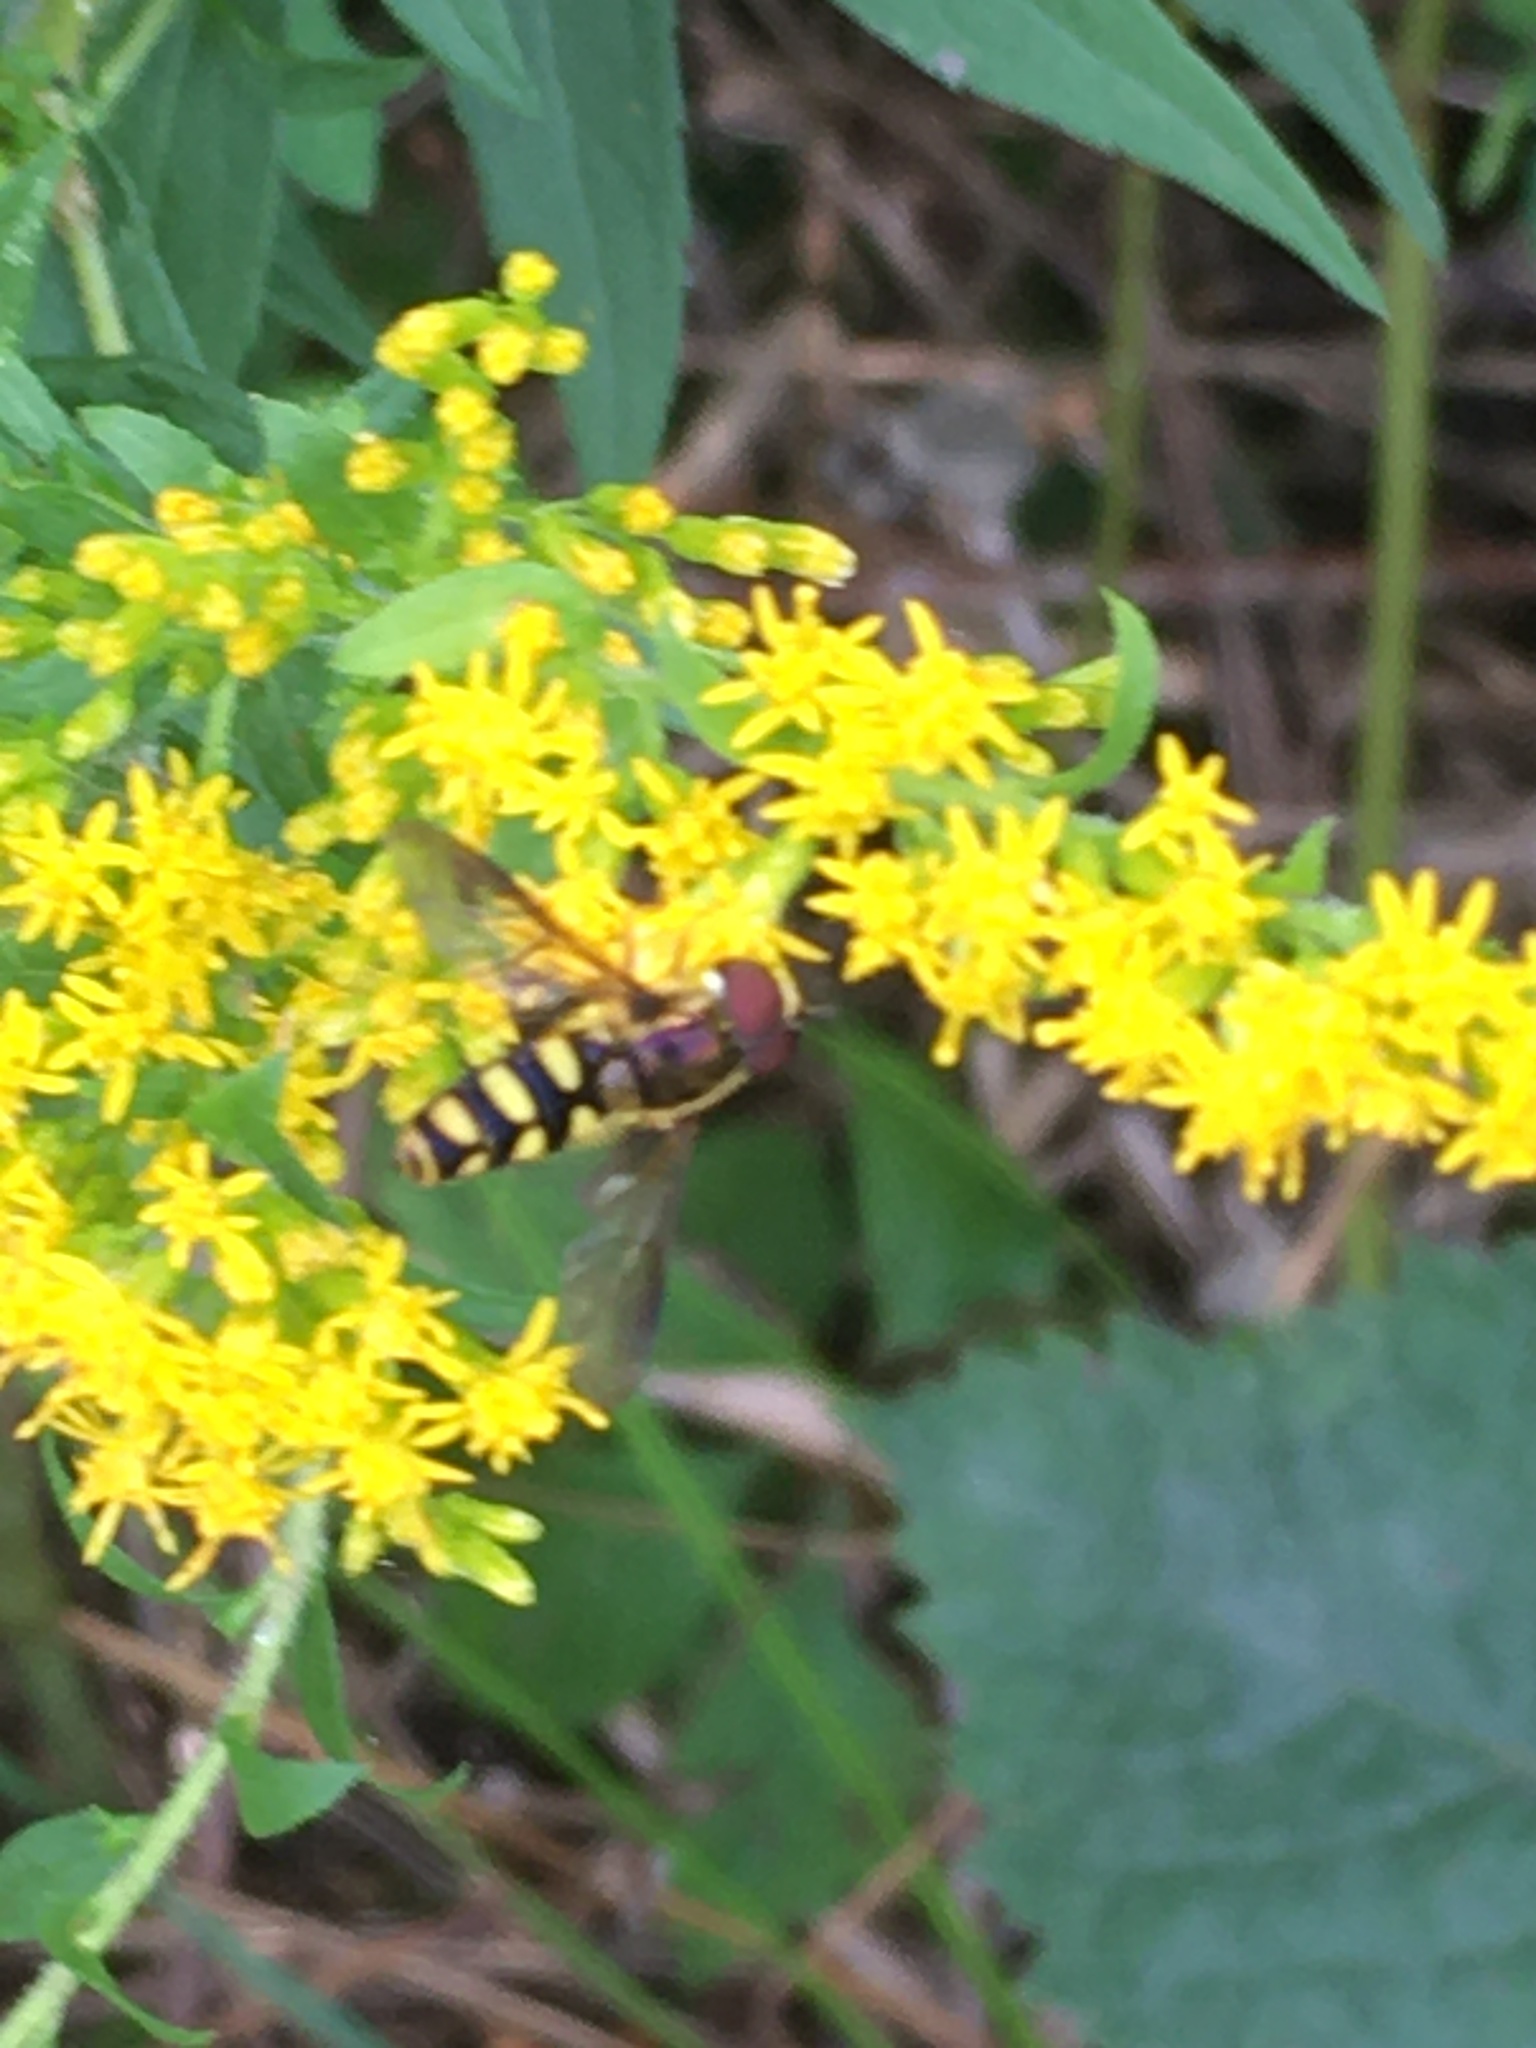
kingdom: Animalia
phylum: Arthropoda
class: Insecta
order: Diptera
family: Syrphidae
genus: Epistrophella
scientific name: Epistrophella emarginata
